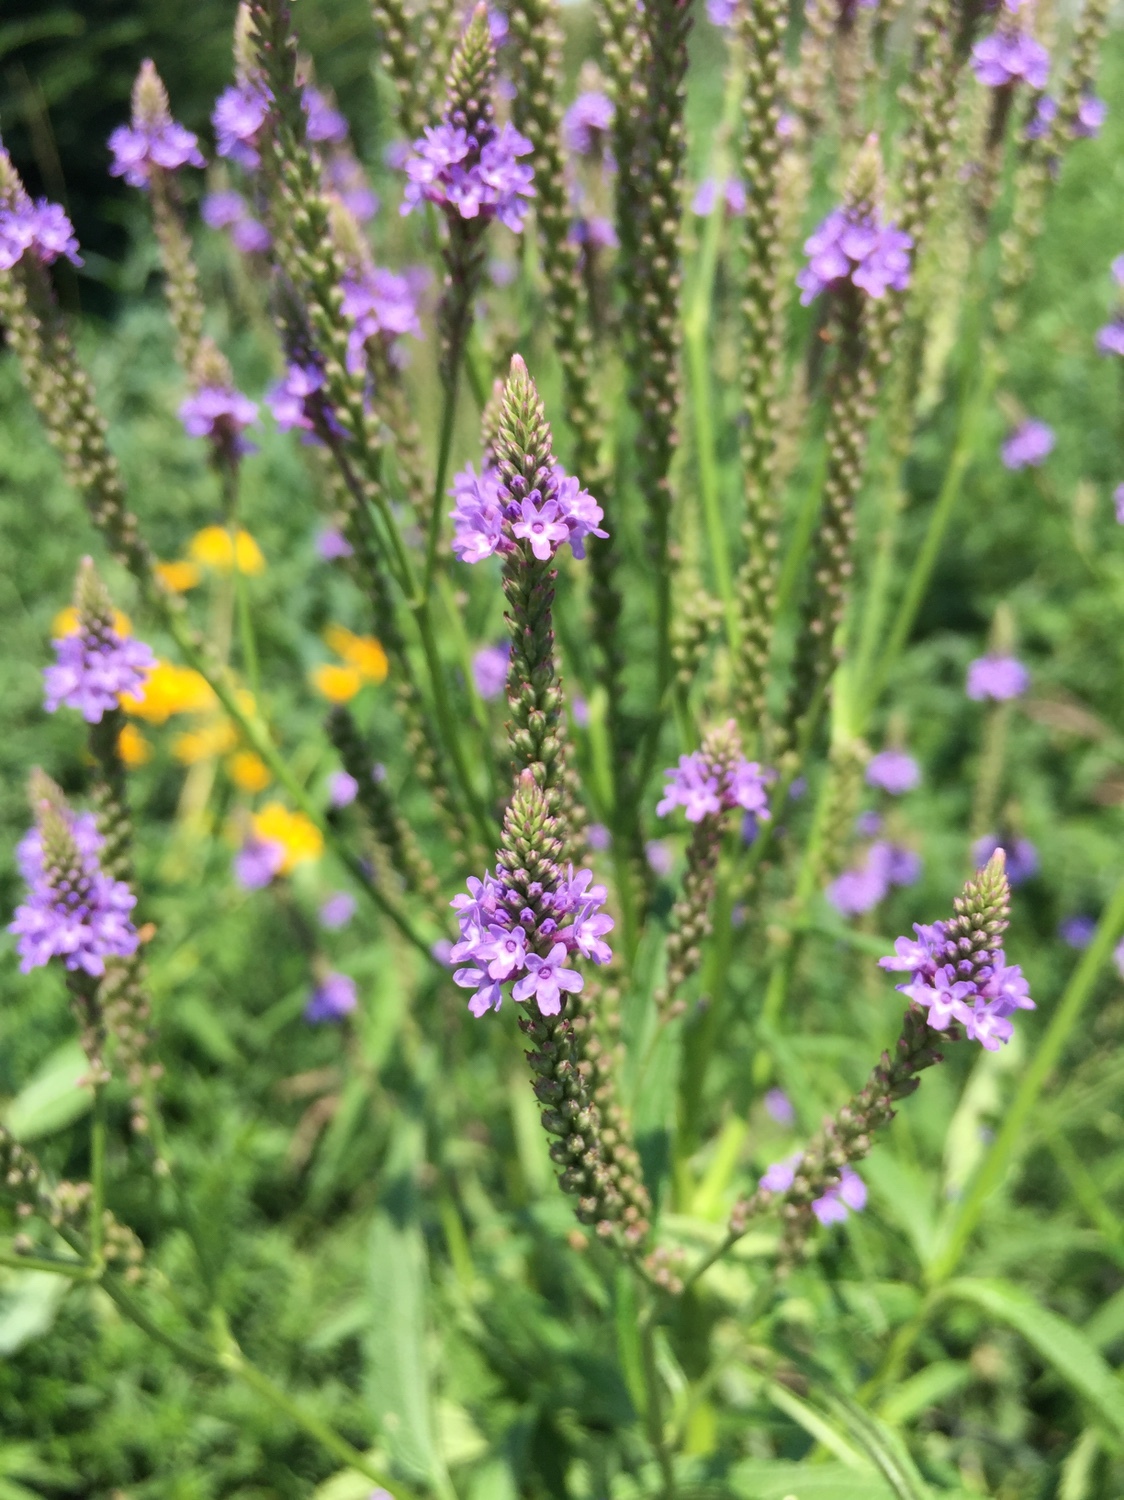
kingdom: Plantae
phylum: Tracheophyta
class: Magnoliopsida
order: Lamiales
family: Verbenaceae
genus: Verbena
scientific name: Verbena hastata
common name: American blue vervain
